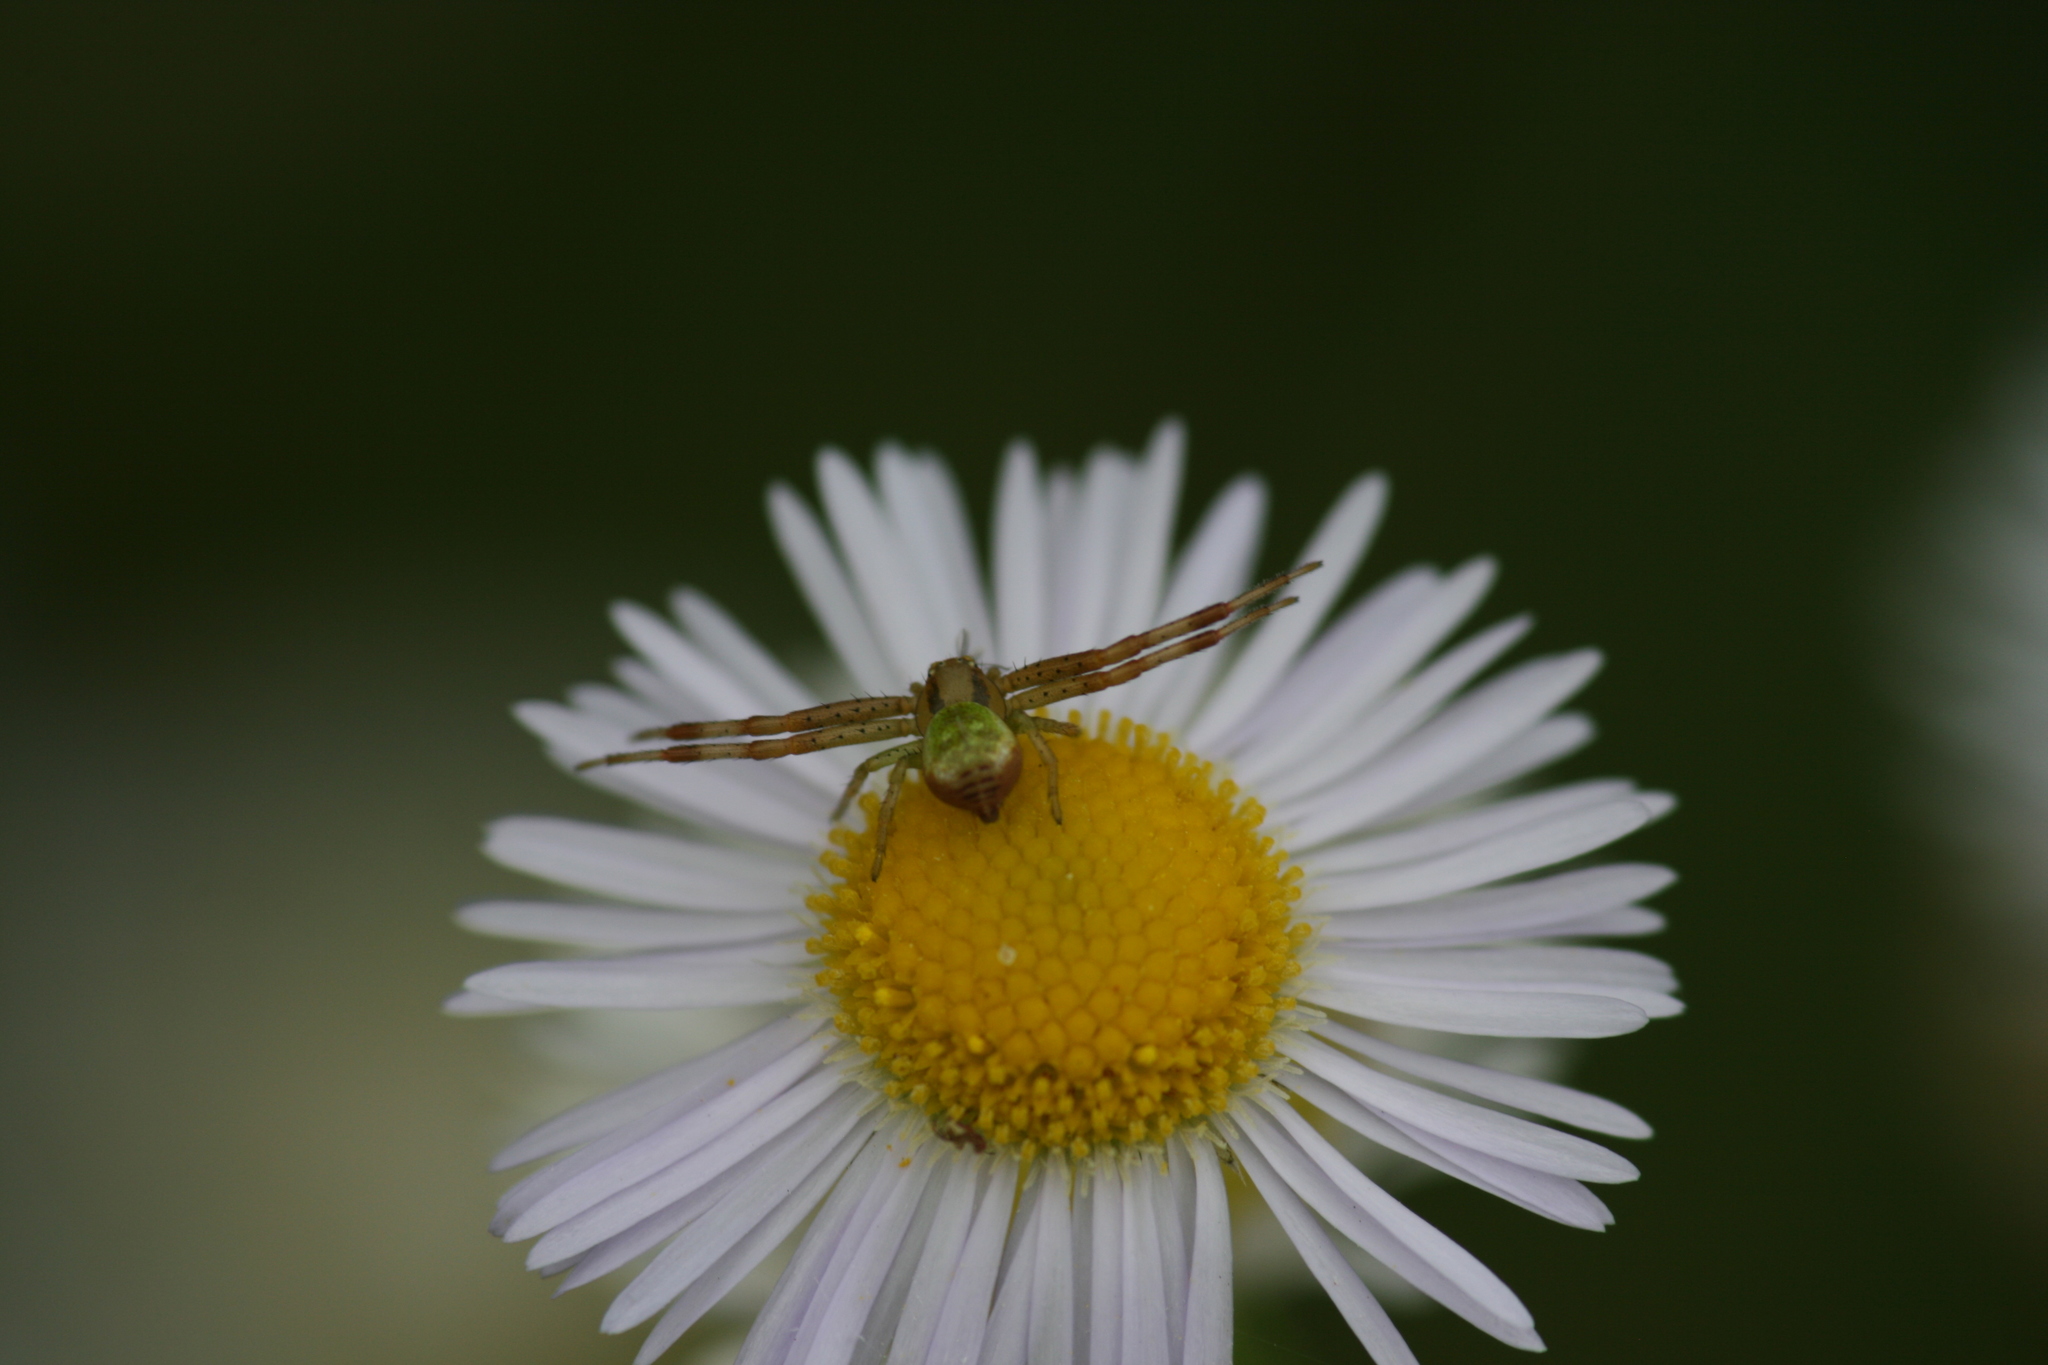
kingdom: Animalia
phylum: Arthropoda
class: Arachnida
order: Araneae
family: Thomisidae
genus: Ebrechtella
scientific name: Ebrechtella tricuspidata
